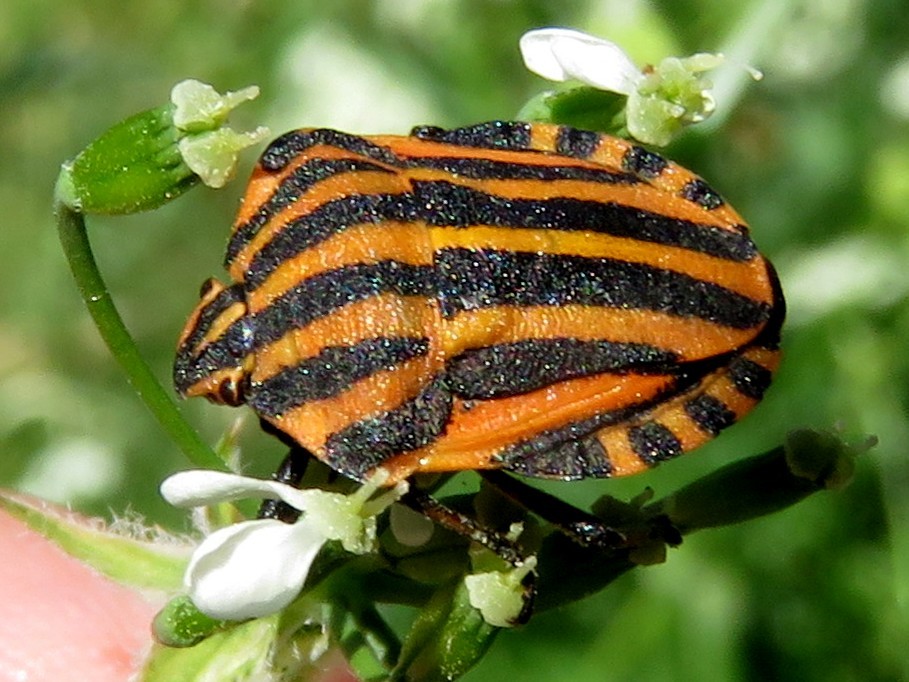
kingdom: Animalia
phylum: Arthropoda
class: Insecta
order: Hemiptera
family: Pentatomidae
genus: Graphosoma
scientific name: Graphosoma italicum
